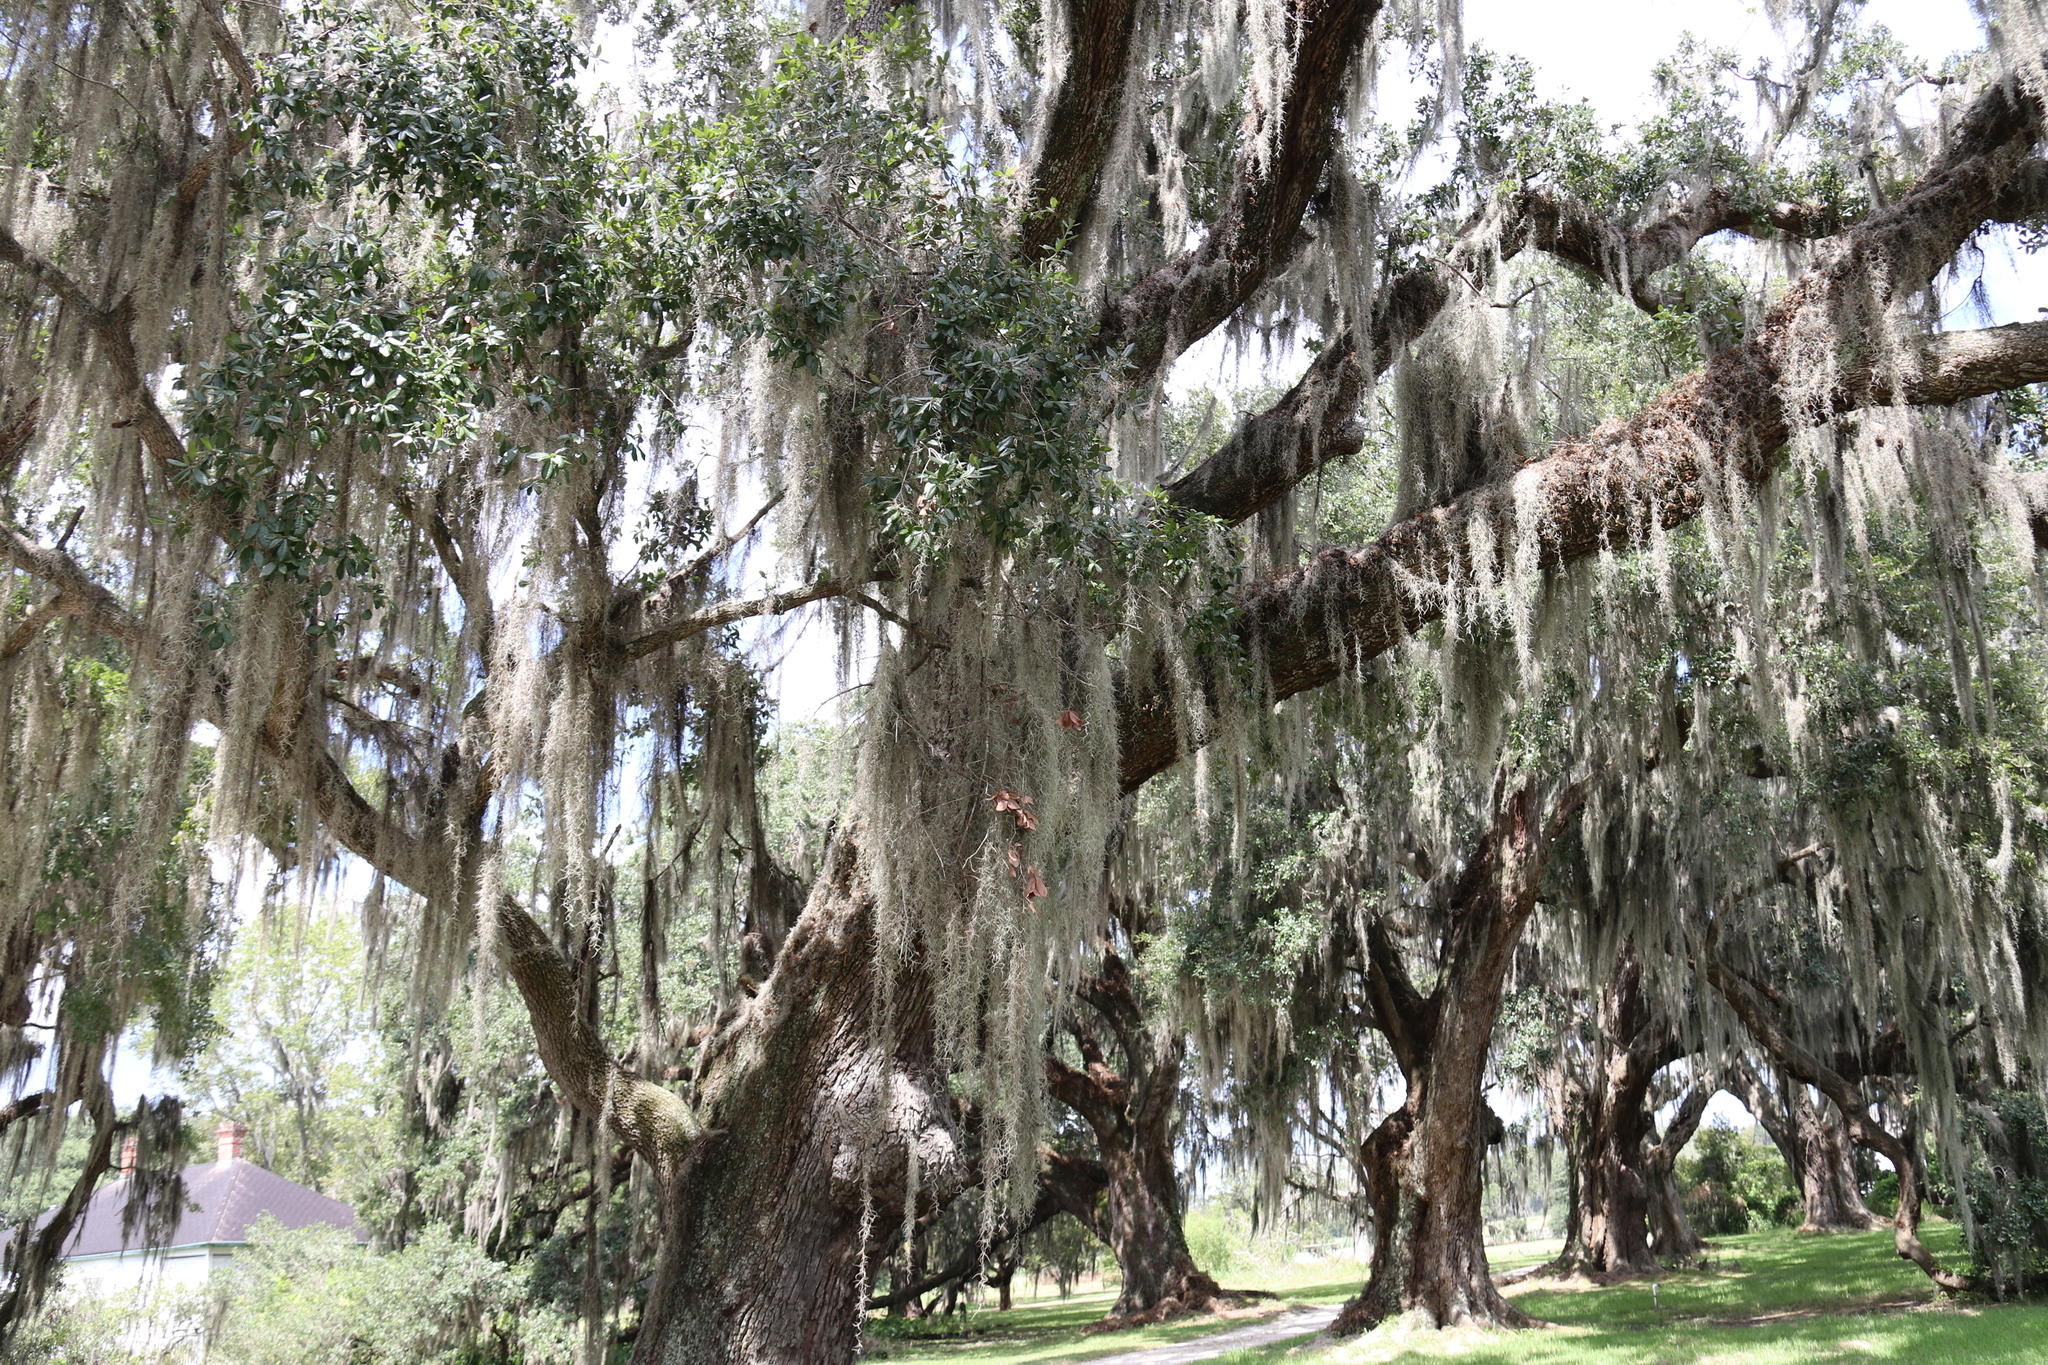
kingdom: Plantae
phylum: Tracheophyta
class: Liliopsida
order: Poales
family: Bromeliaceae
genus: Tillandsia
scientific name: Tillandsia usneoides
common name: Spanish moss
